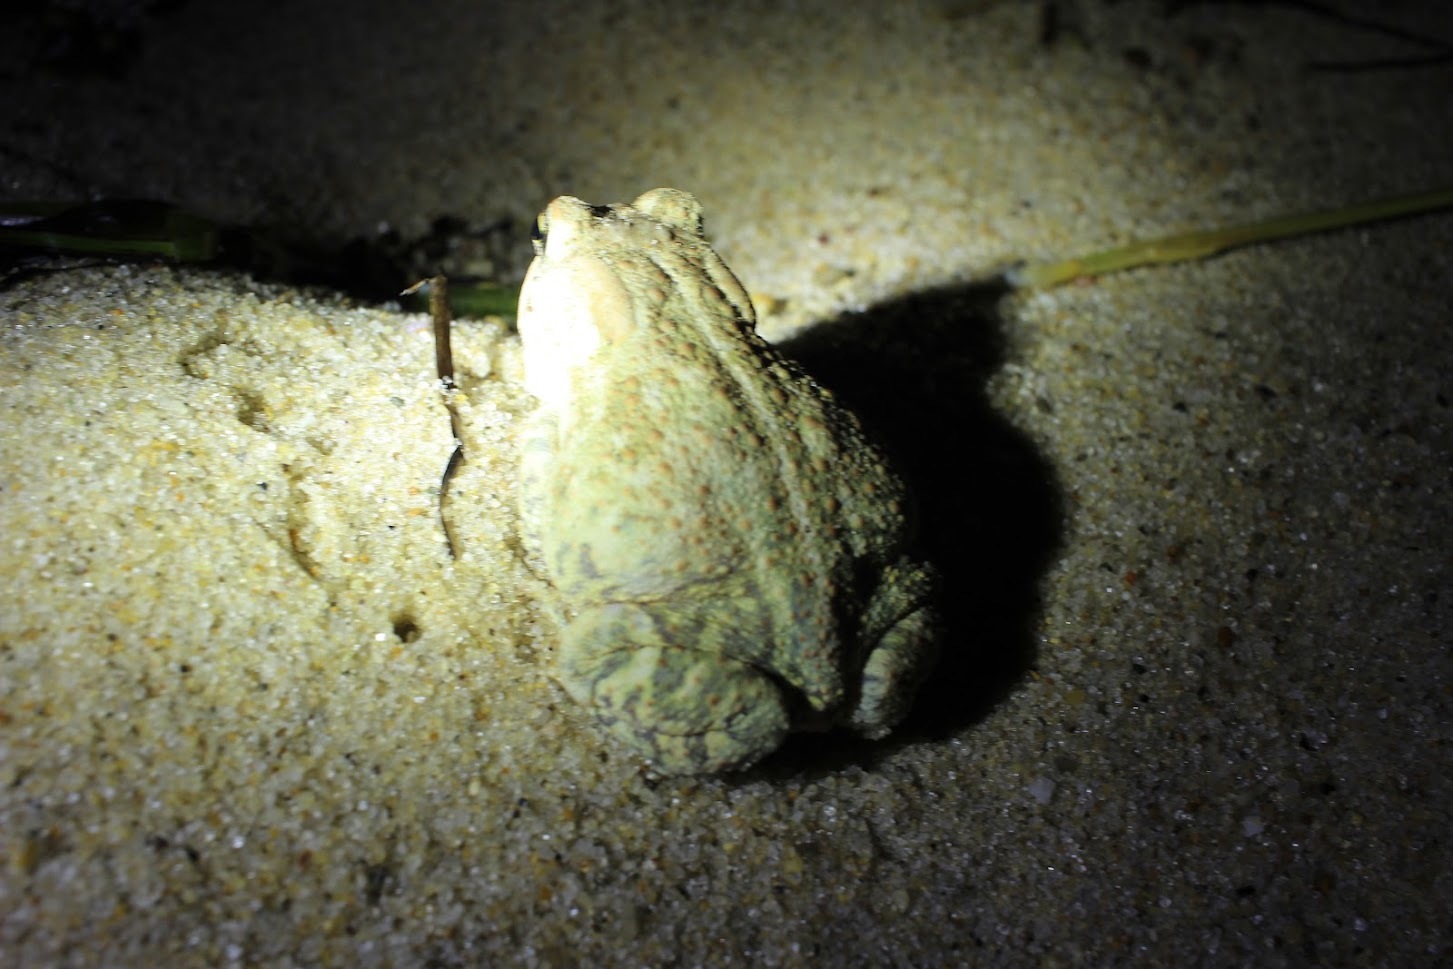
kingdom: Animalia
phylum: Chordata
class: Amphibia
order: Anura
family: Bufonidae
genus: Anaxyrus
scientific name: Anaxyrus fowleri
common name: Fowler's toad
